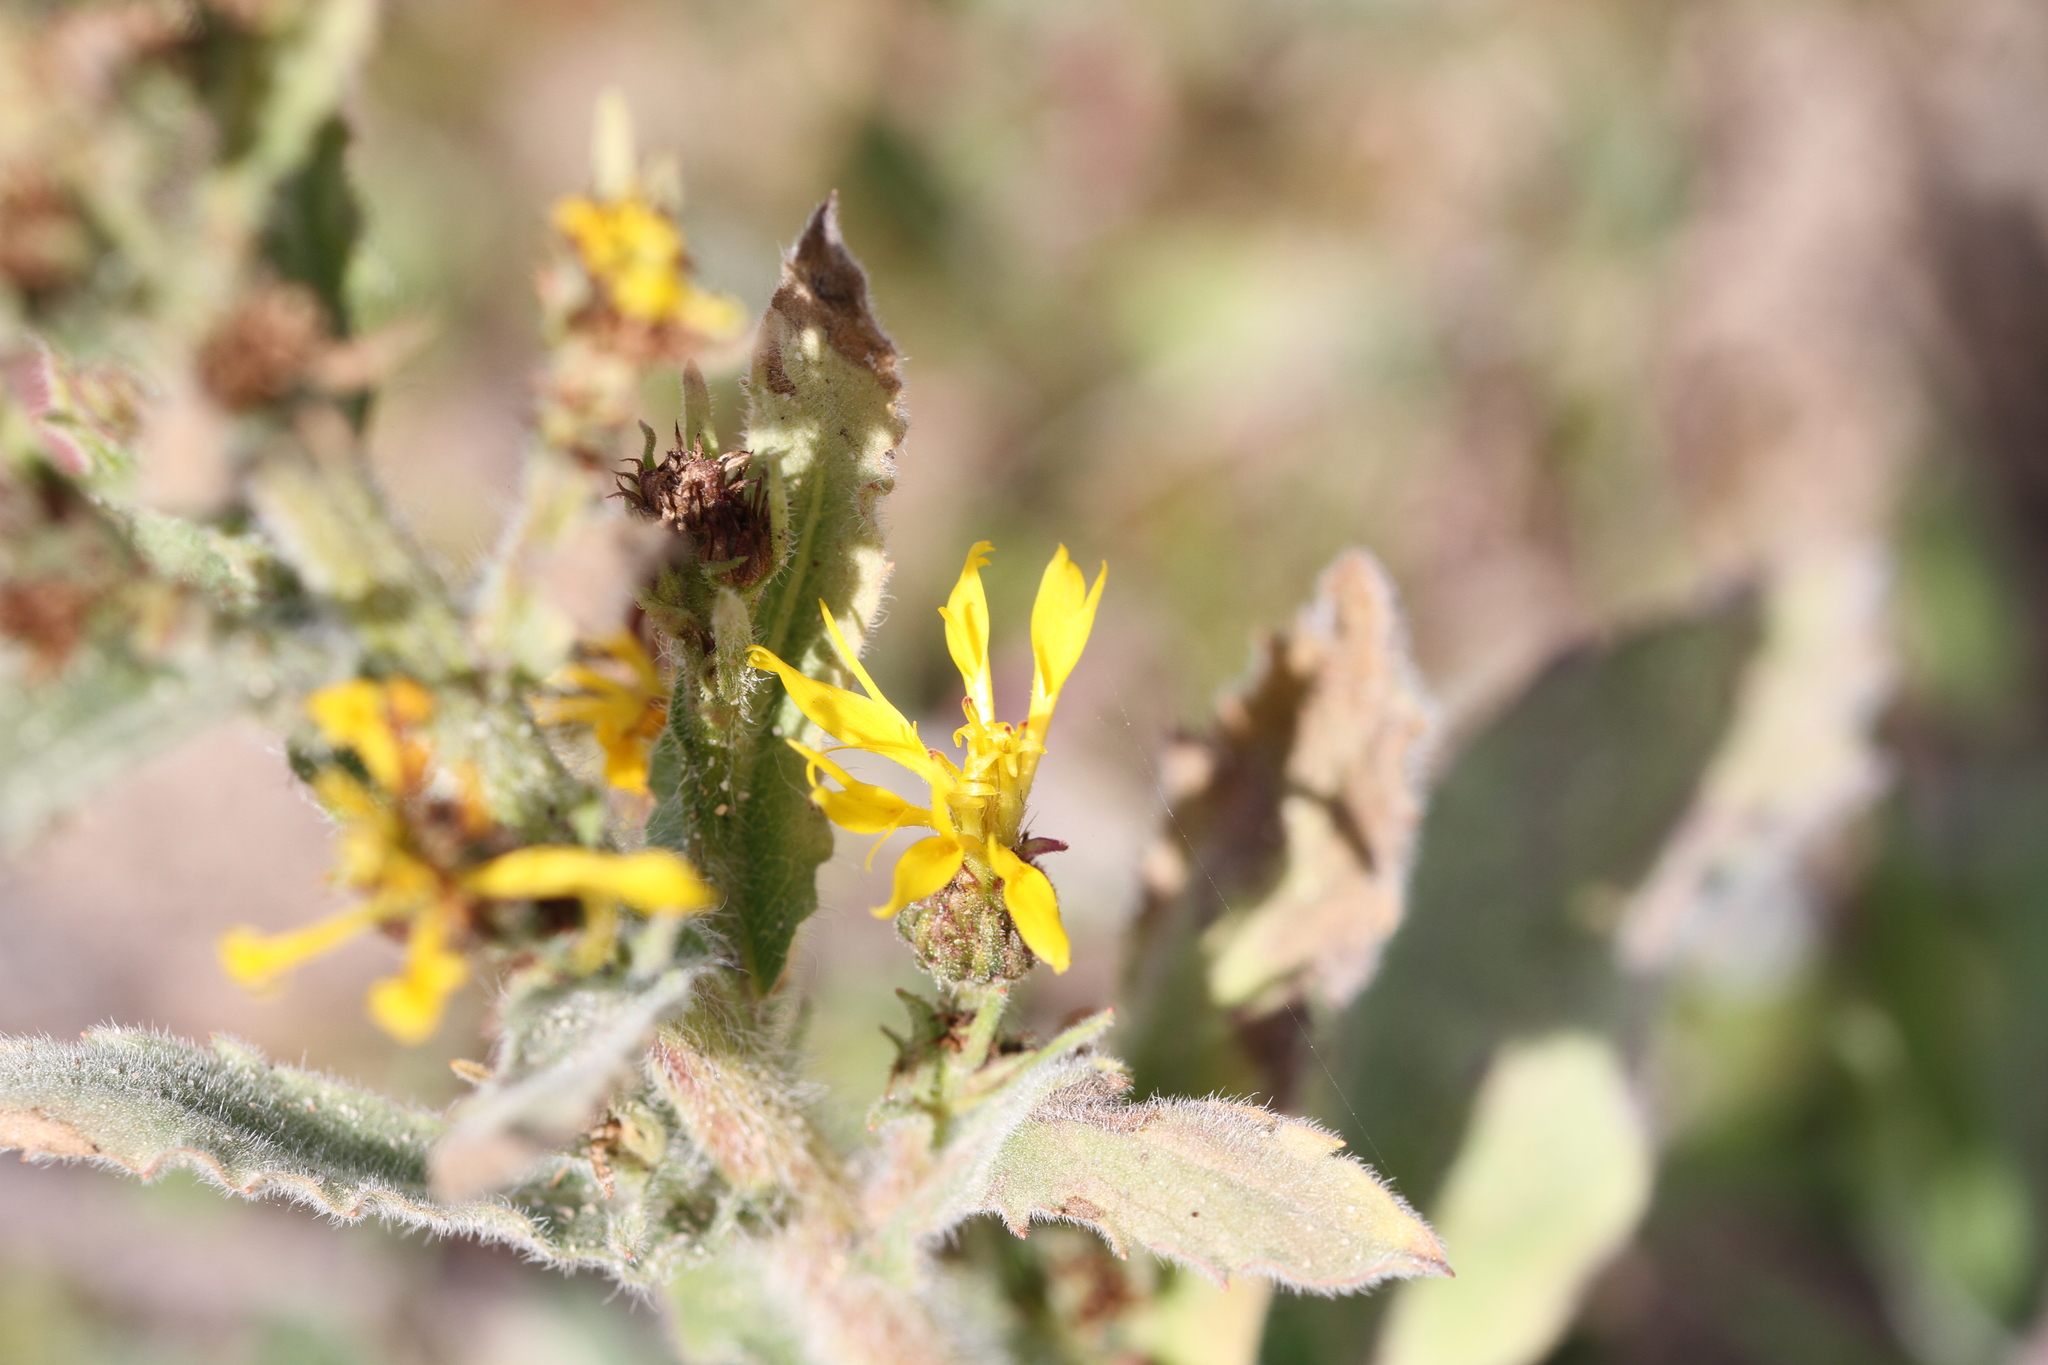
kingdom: Plantae
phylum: Tracheophyta
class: Magnoliopsida
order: Asterales
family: Asteraceae
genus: Heterotheca
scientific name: Heterotheca grandiflora
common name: Telegraphweed
